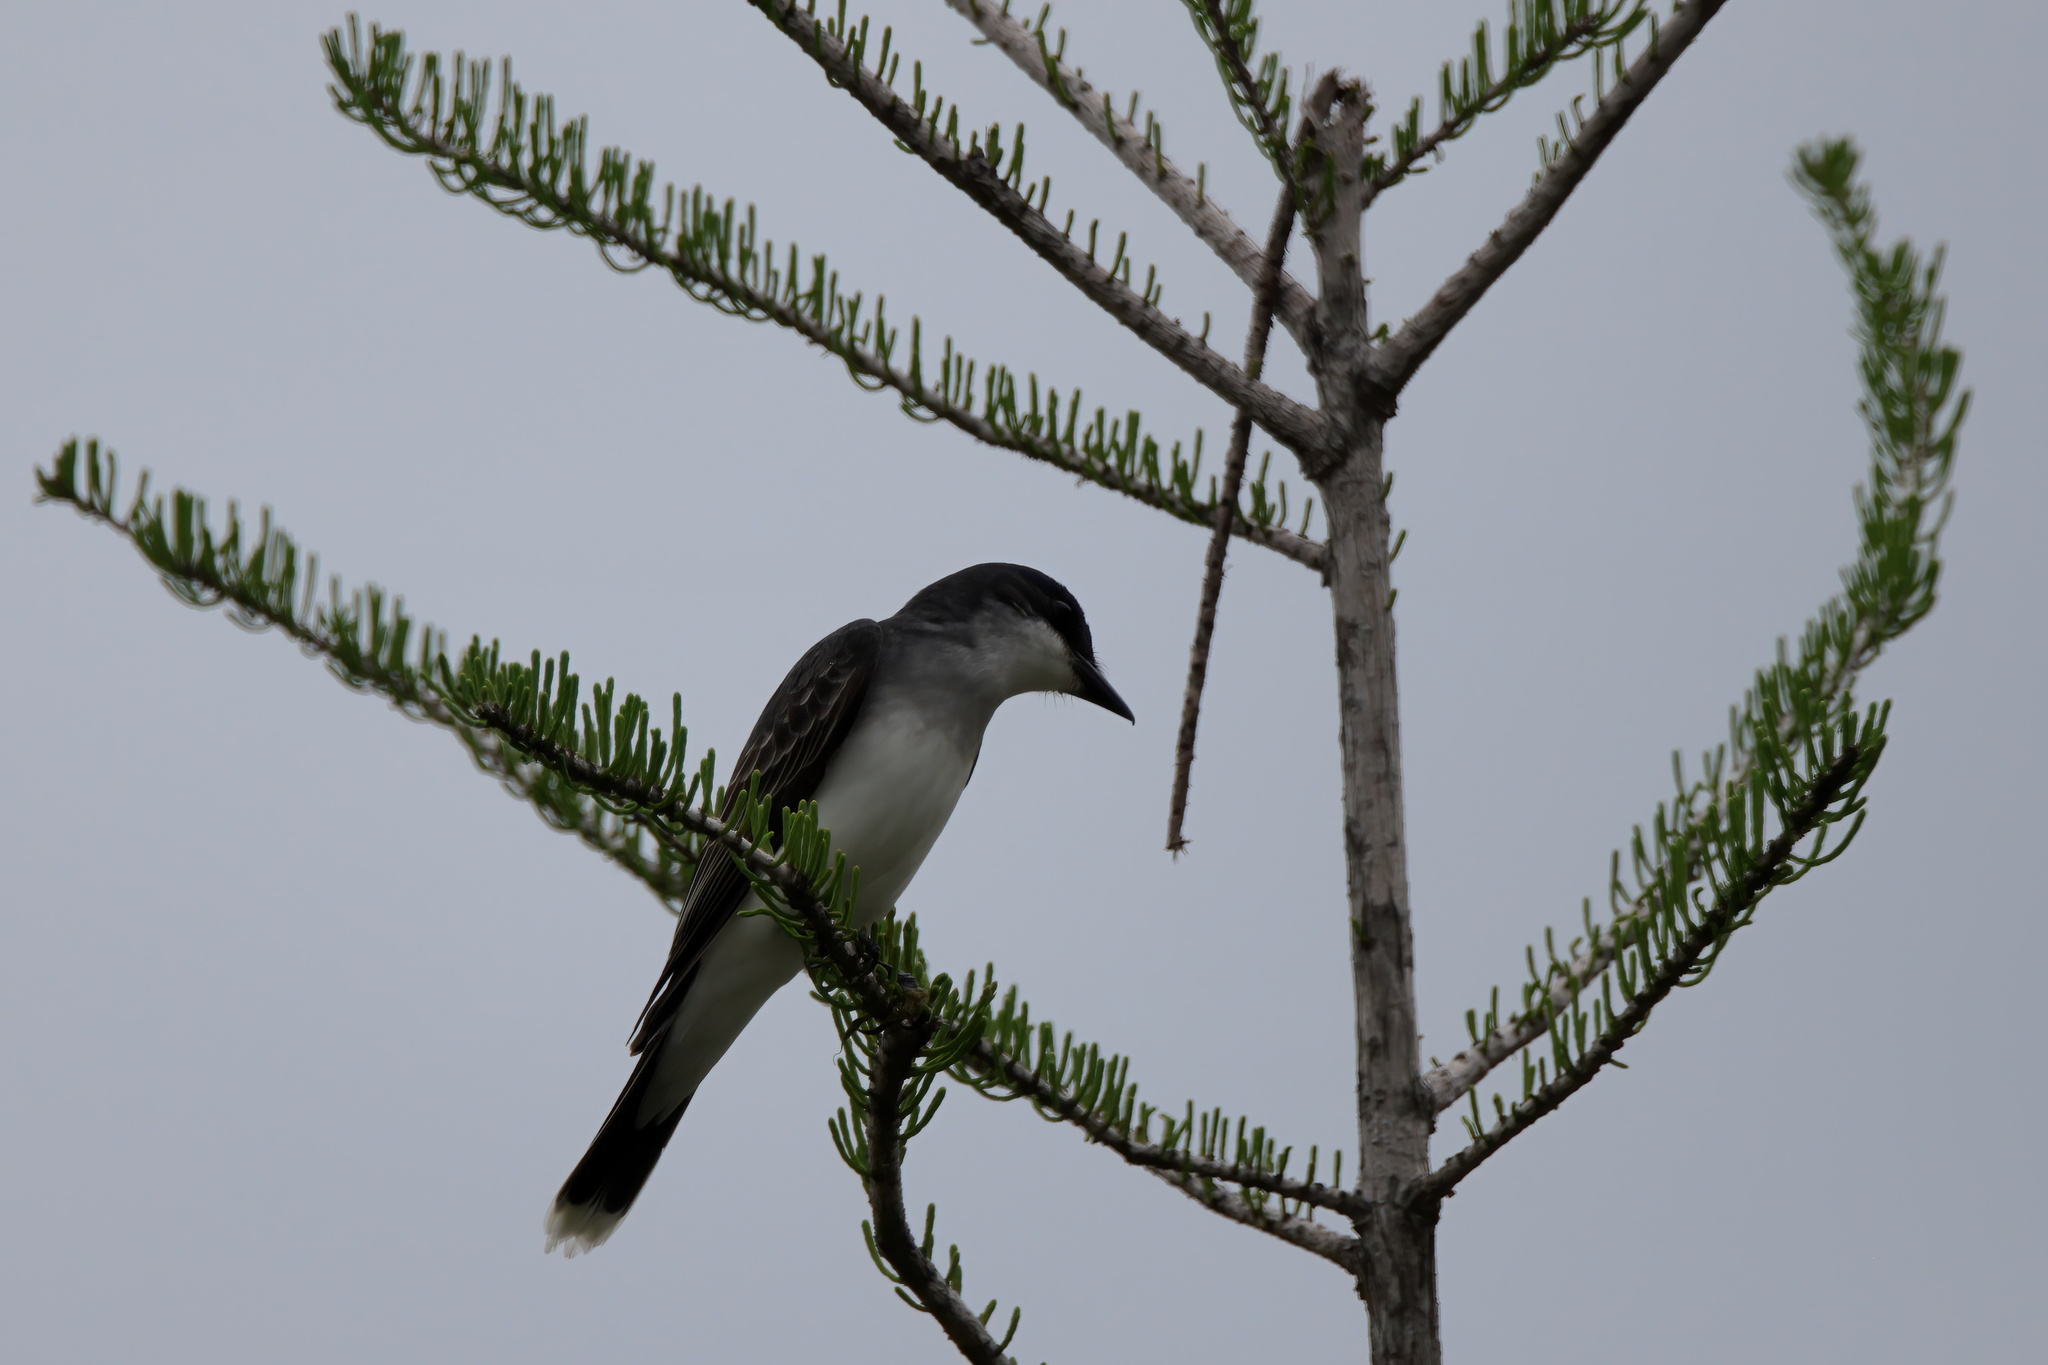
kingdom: Animalia
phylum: Chordata
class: Aves
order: Passeriformes
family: Tyrannidae
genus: Tyrannus
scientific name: Tyrannus tyrannus
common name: Eastern kingbird
